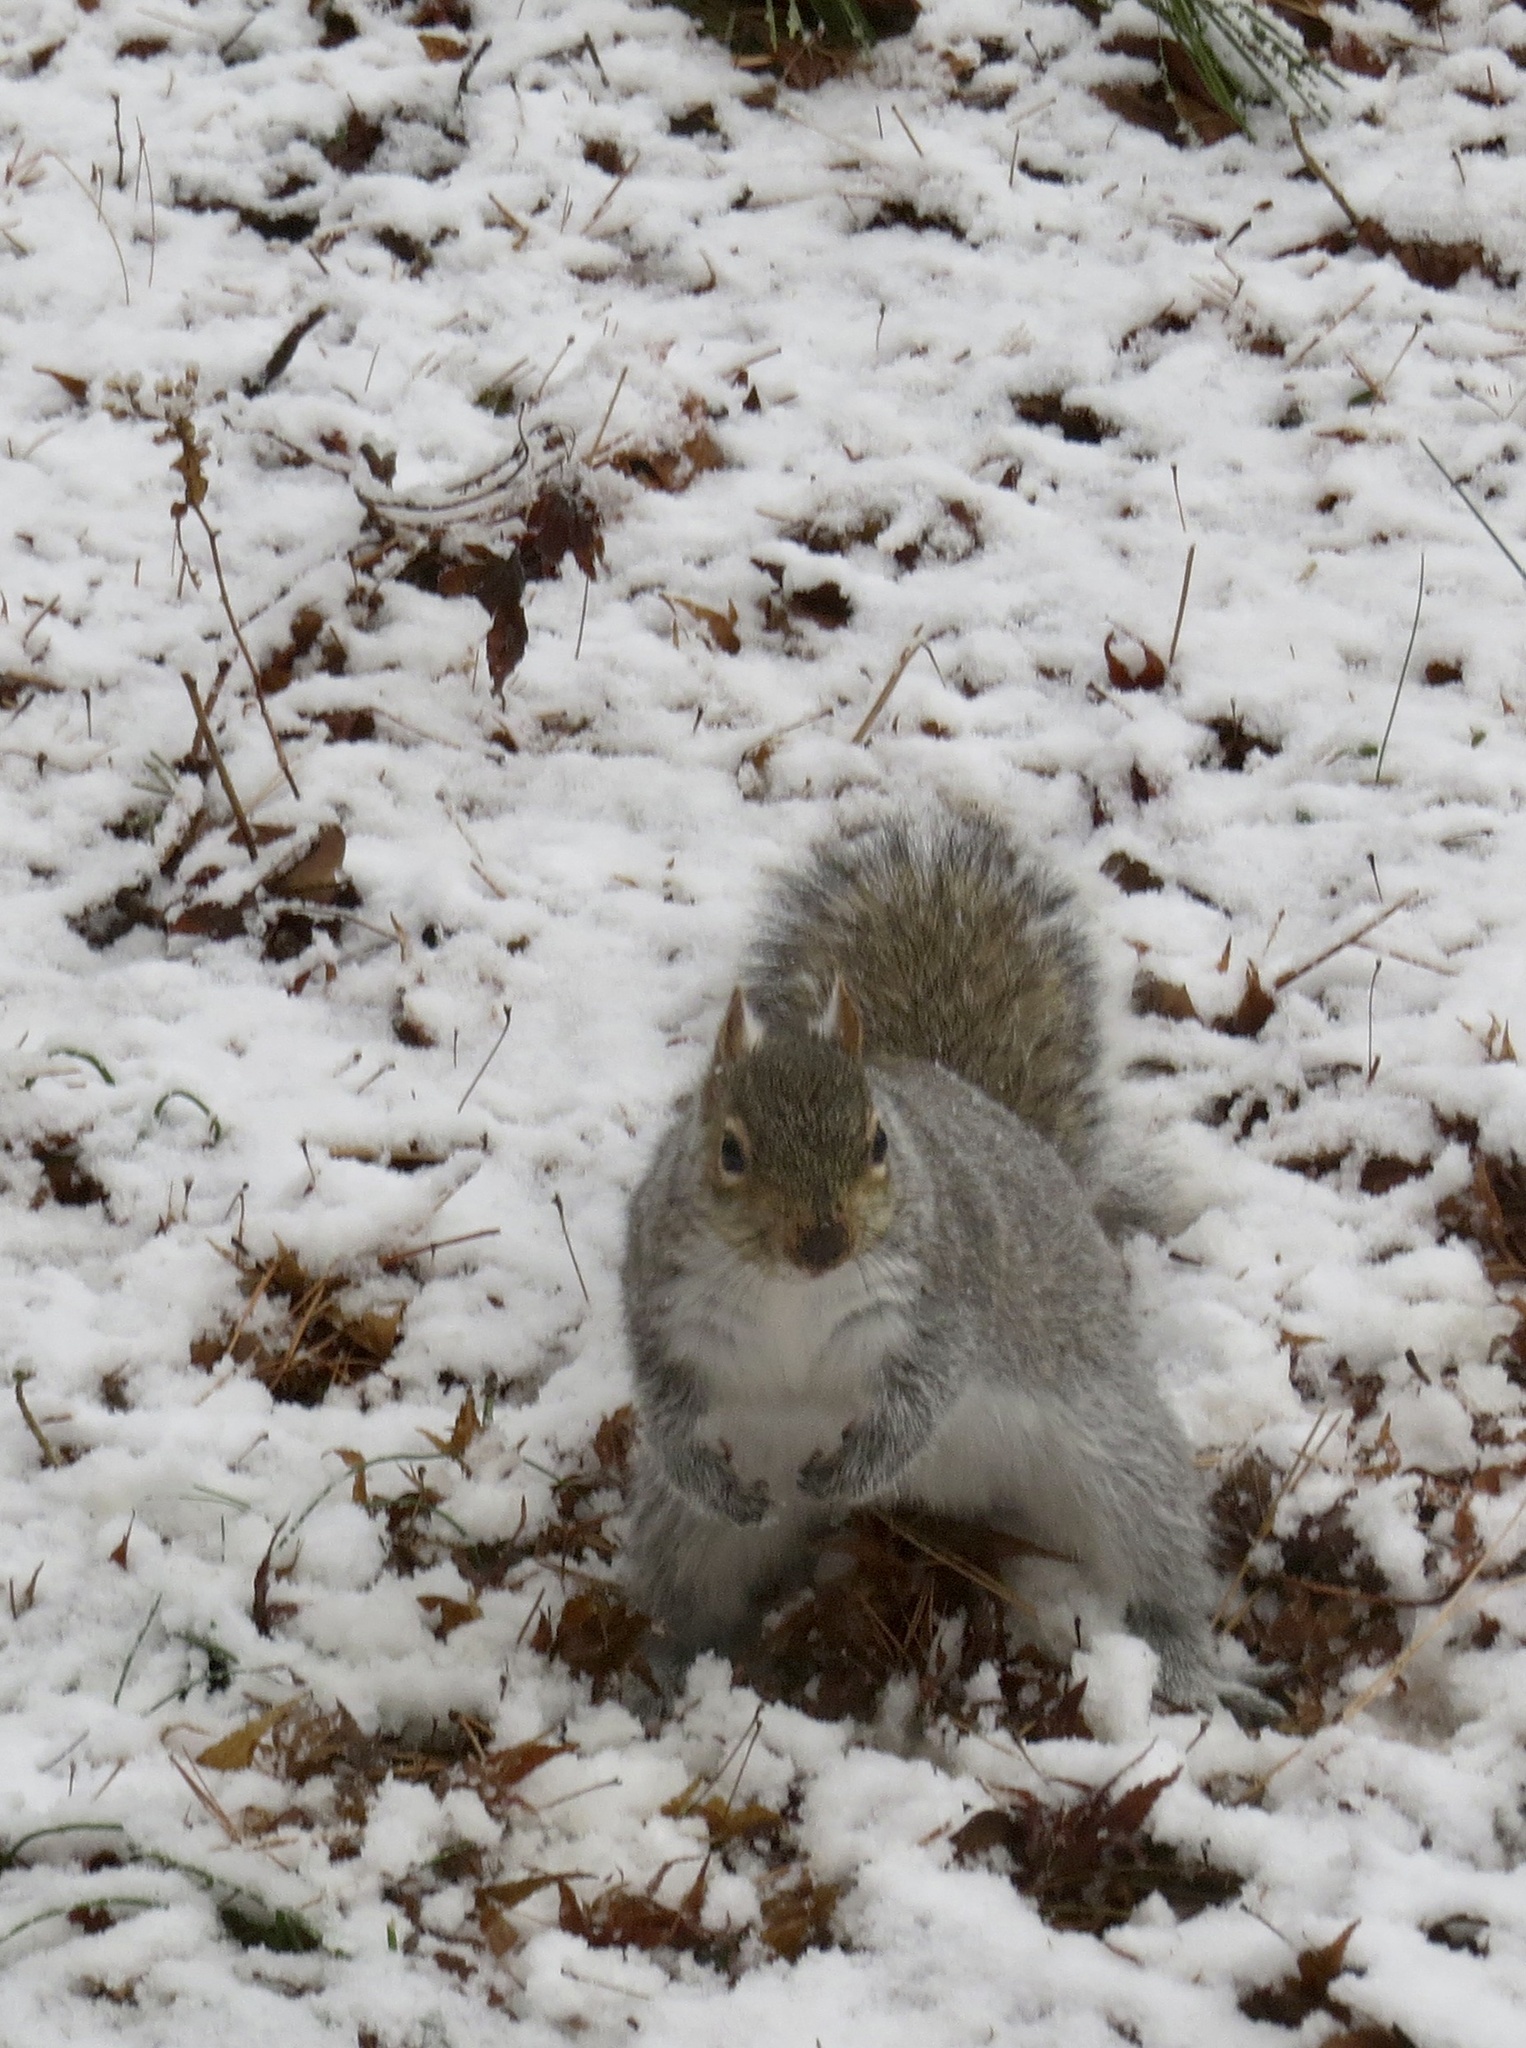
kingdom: Animalia
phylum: Chordata
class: Mammalia
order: Rodentia
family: Sciuridae
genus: Sciurus
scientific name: Sciurus carolinensis
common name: Eastern gray squirrel
